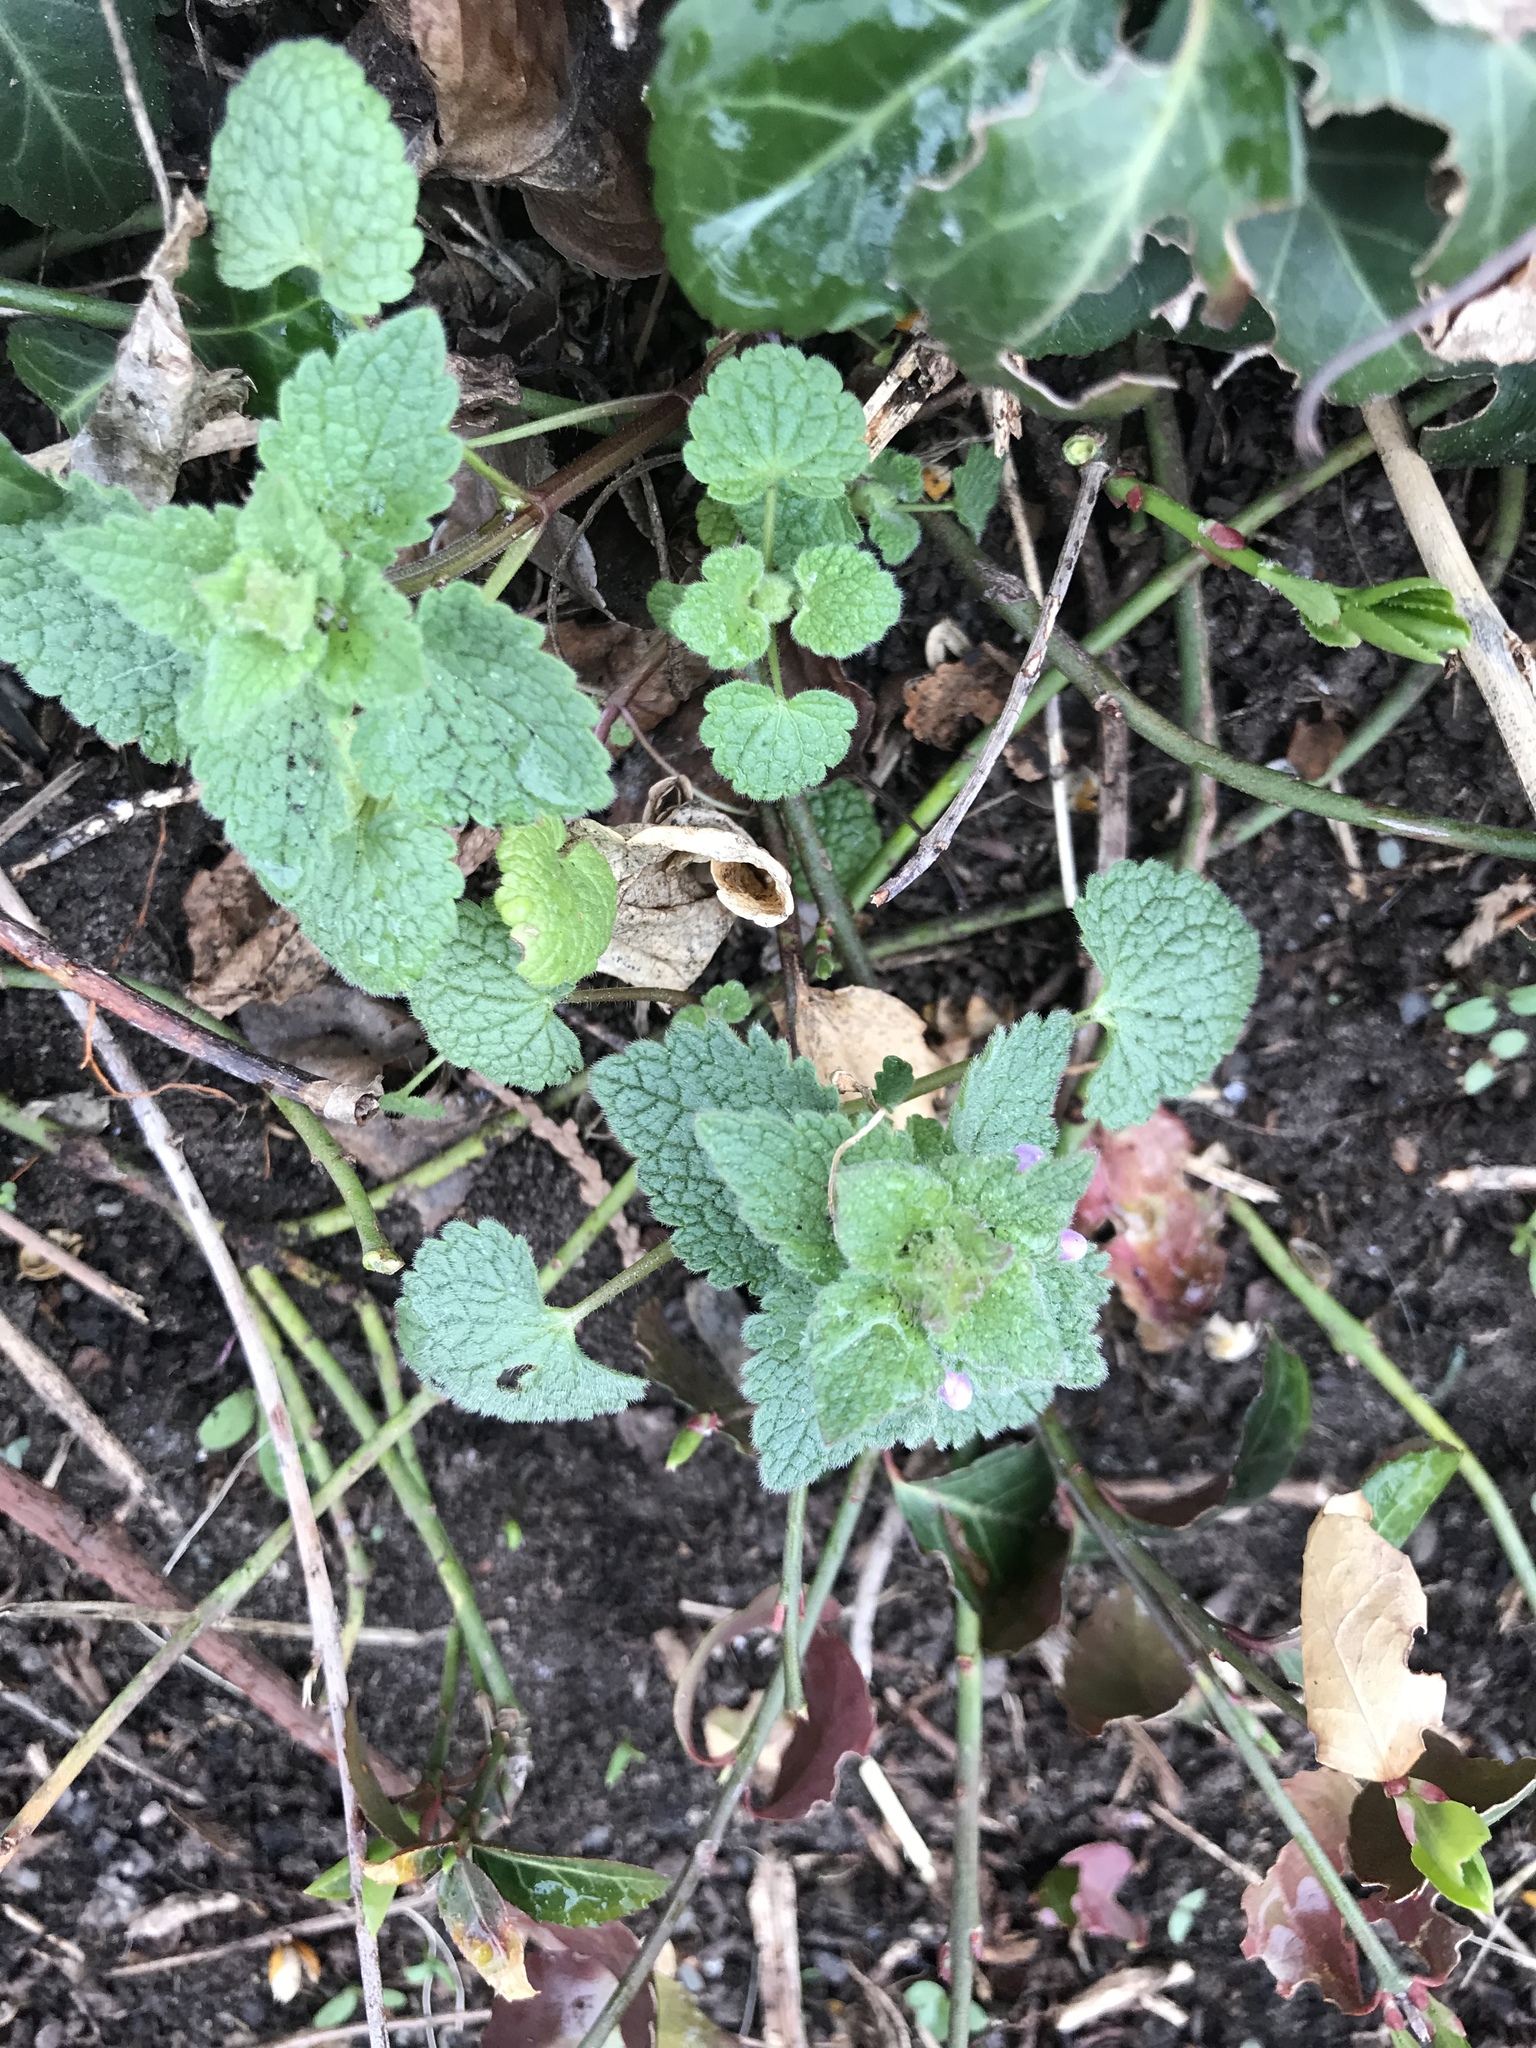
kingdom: Plantae
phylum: Tracheophyta
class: Magnoliopsida
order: Lamiales
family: Lamiaceae
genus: Lamium
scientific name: Lamium purpureum
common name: Red dead-nettle
